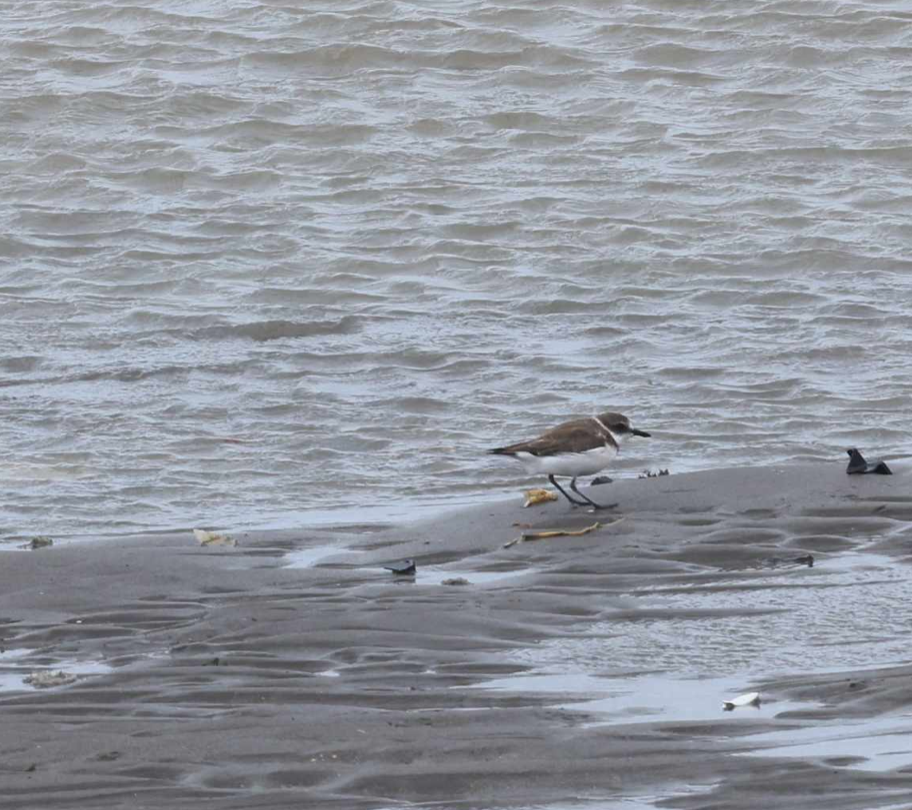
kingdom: Animalia
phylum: Chordata
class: Aves
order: Charadriiformes
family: Charadriidae
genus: Charadrius
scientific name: Charadrius alexandrinus
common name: Kentish plover
